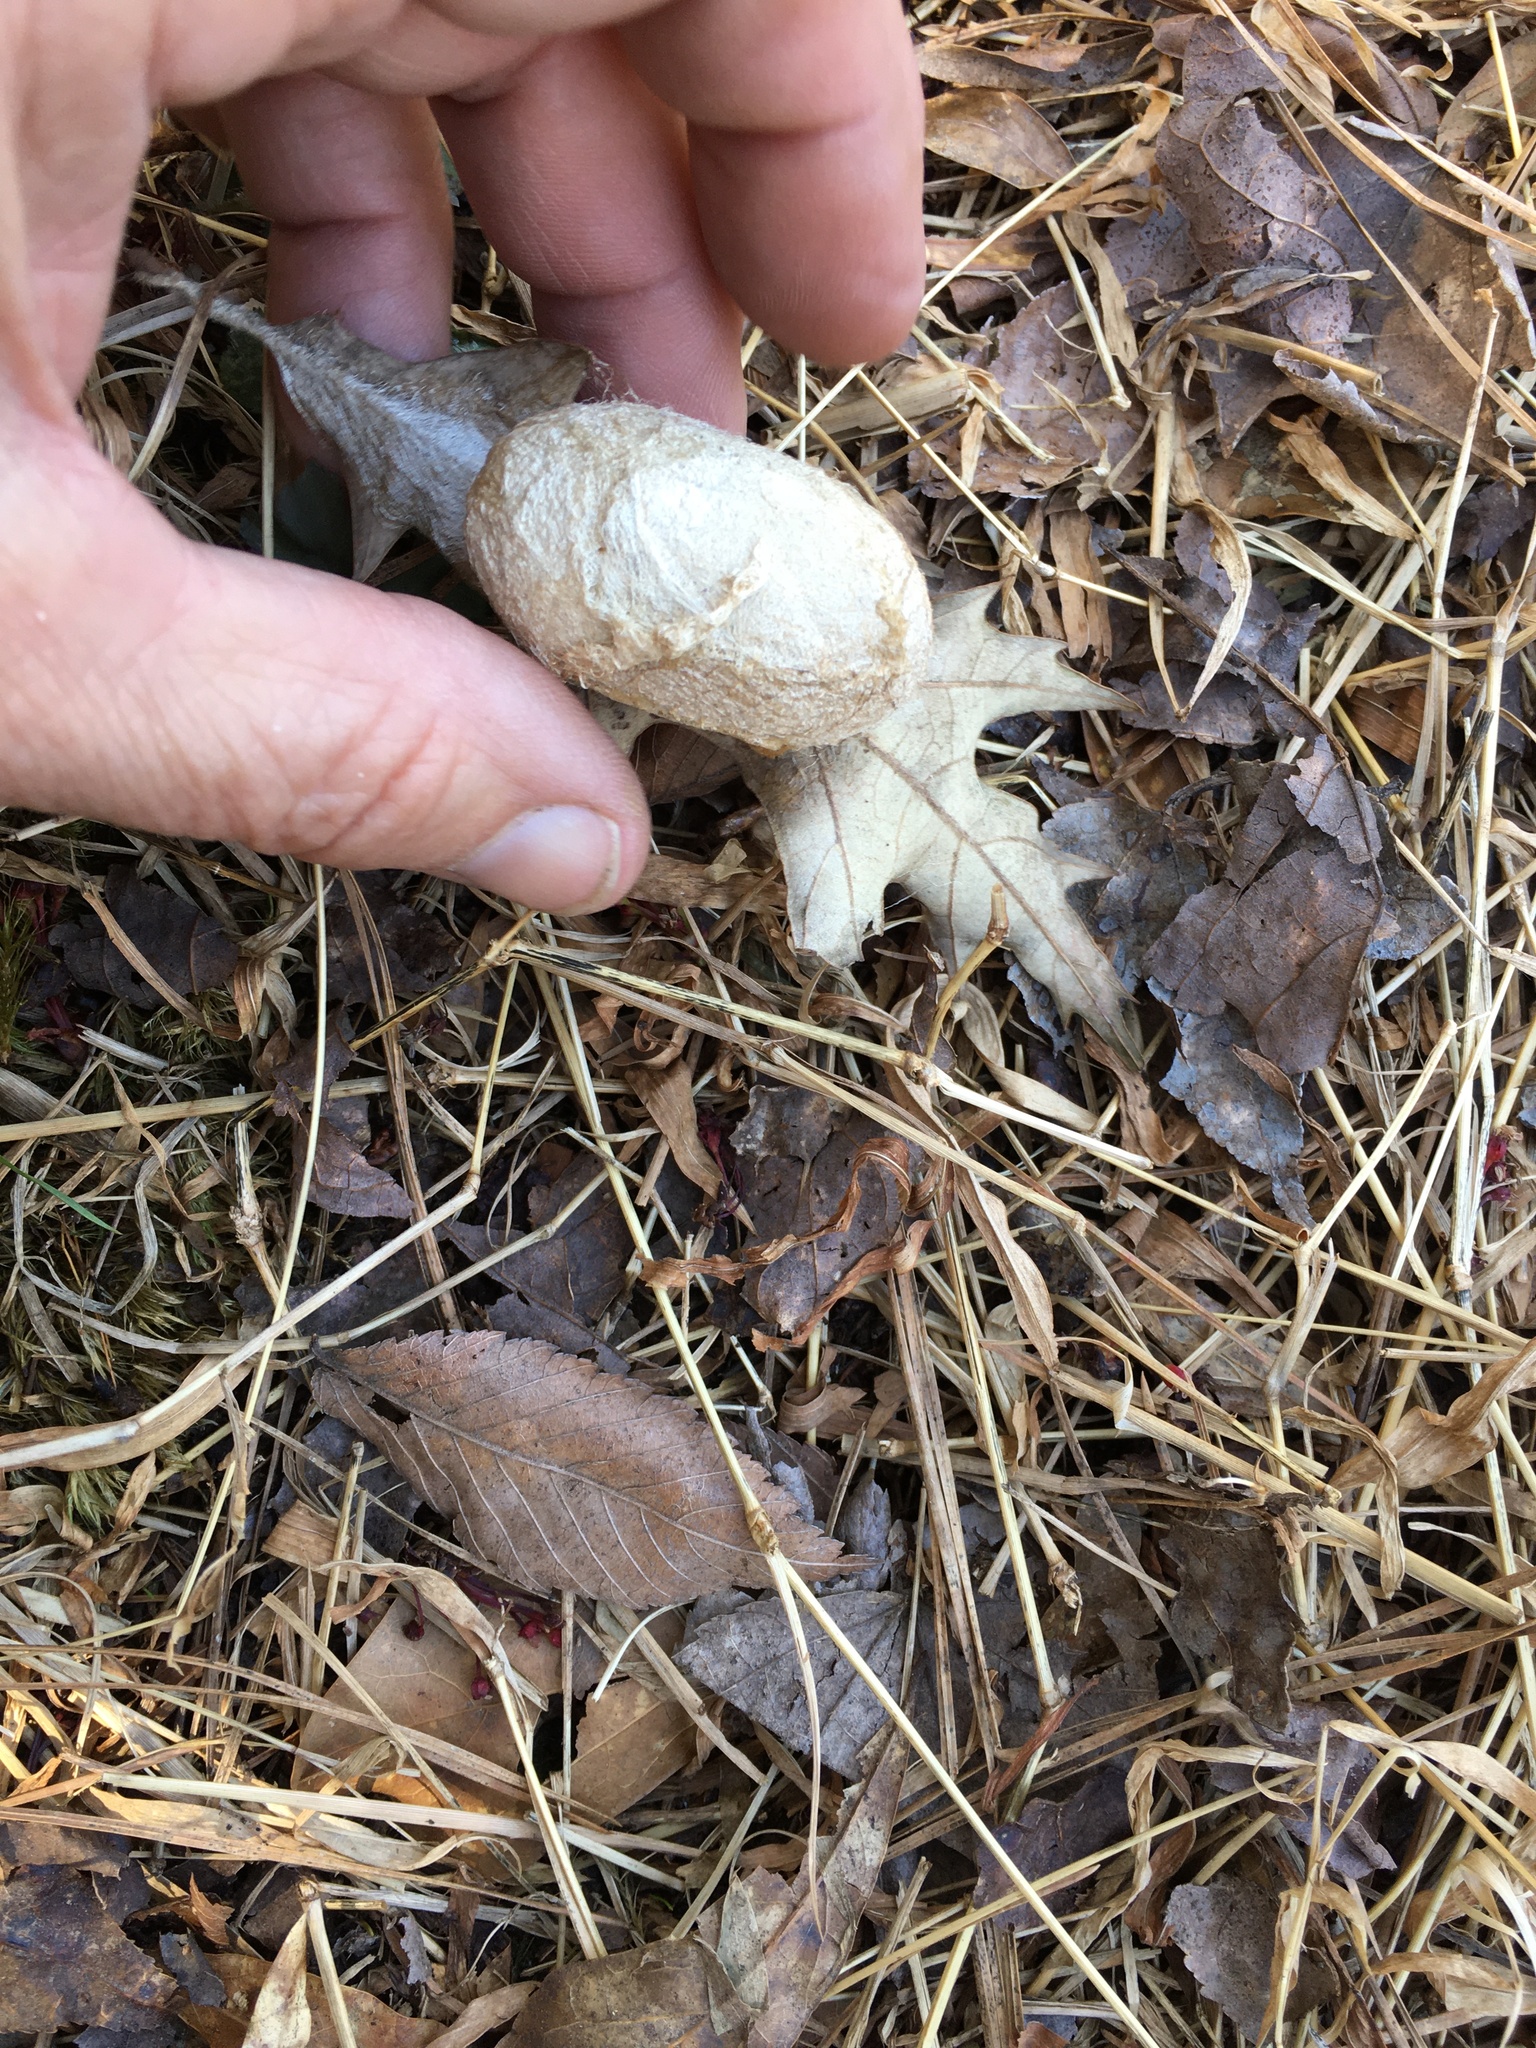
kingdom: Animalia
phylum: Arthropoda
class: Insecta
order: Lepidoptera
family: Saturniidae
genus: Antheraea
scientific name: Antheraea polyphemus
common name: Polyphemus moth
